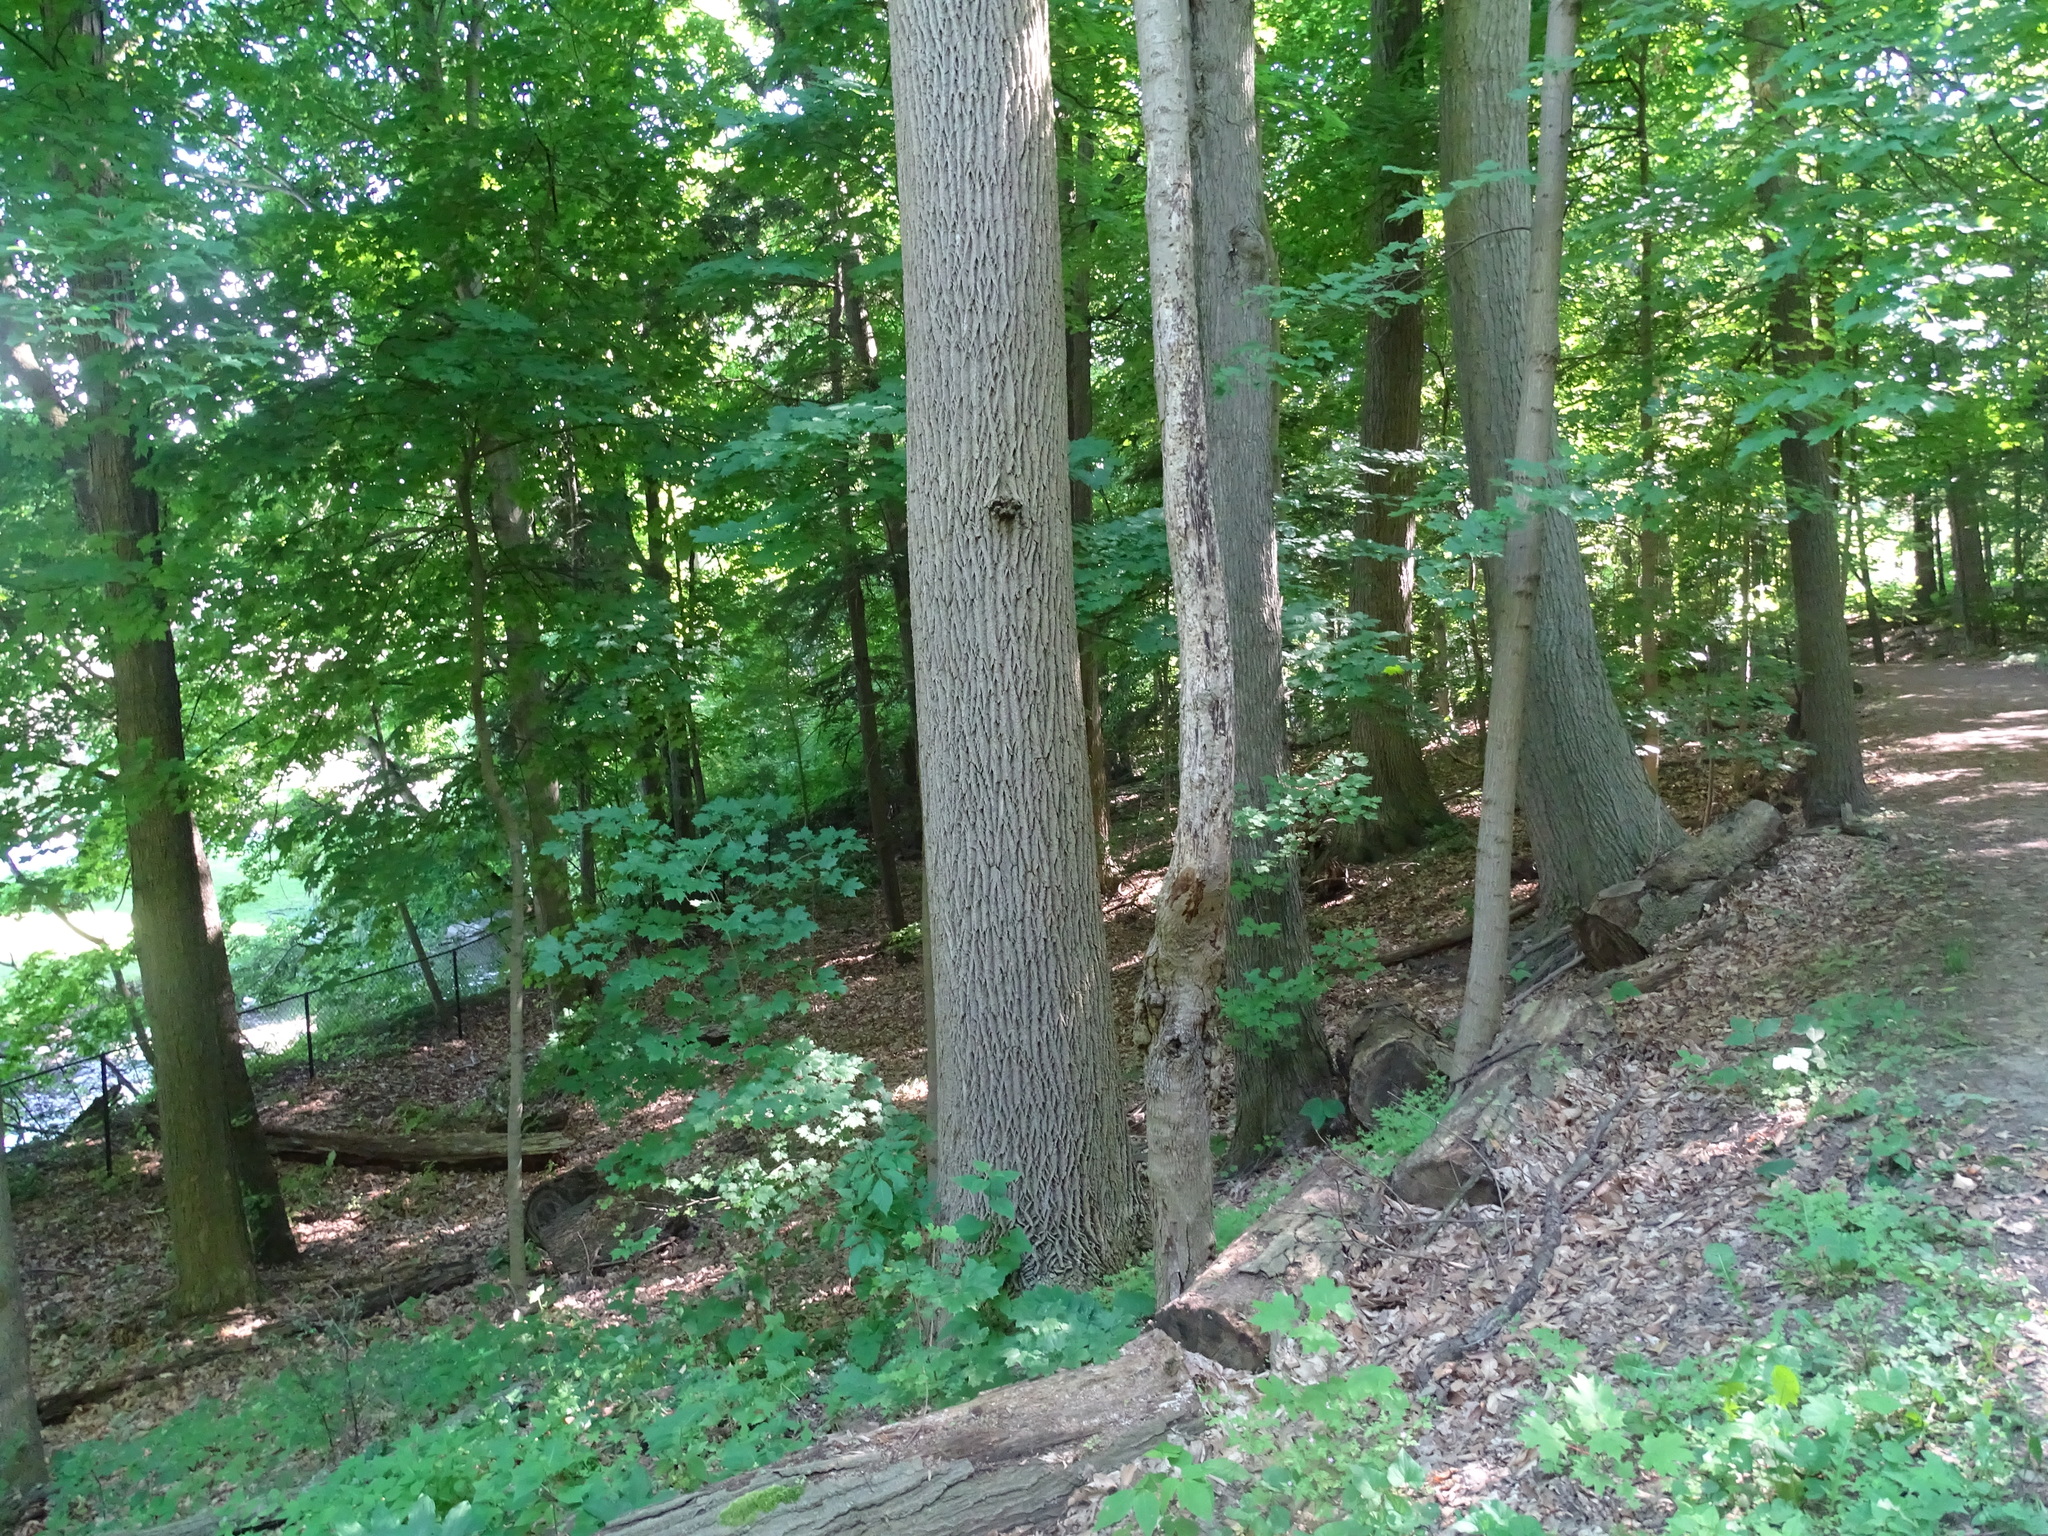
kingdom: Plantae
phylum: Tracheophyta
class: Magnoliopsida
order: Lamiales
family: Oleaceae
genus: Fraxinus
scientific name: Fraxinus americana
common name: White ash
